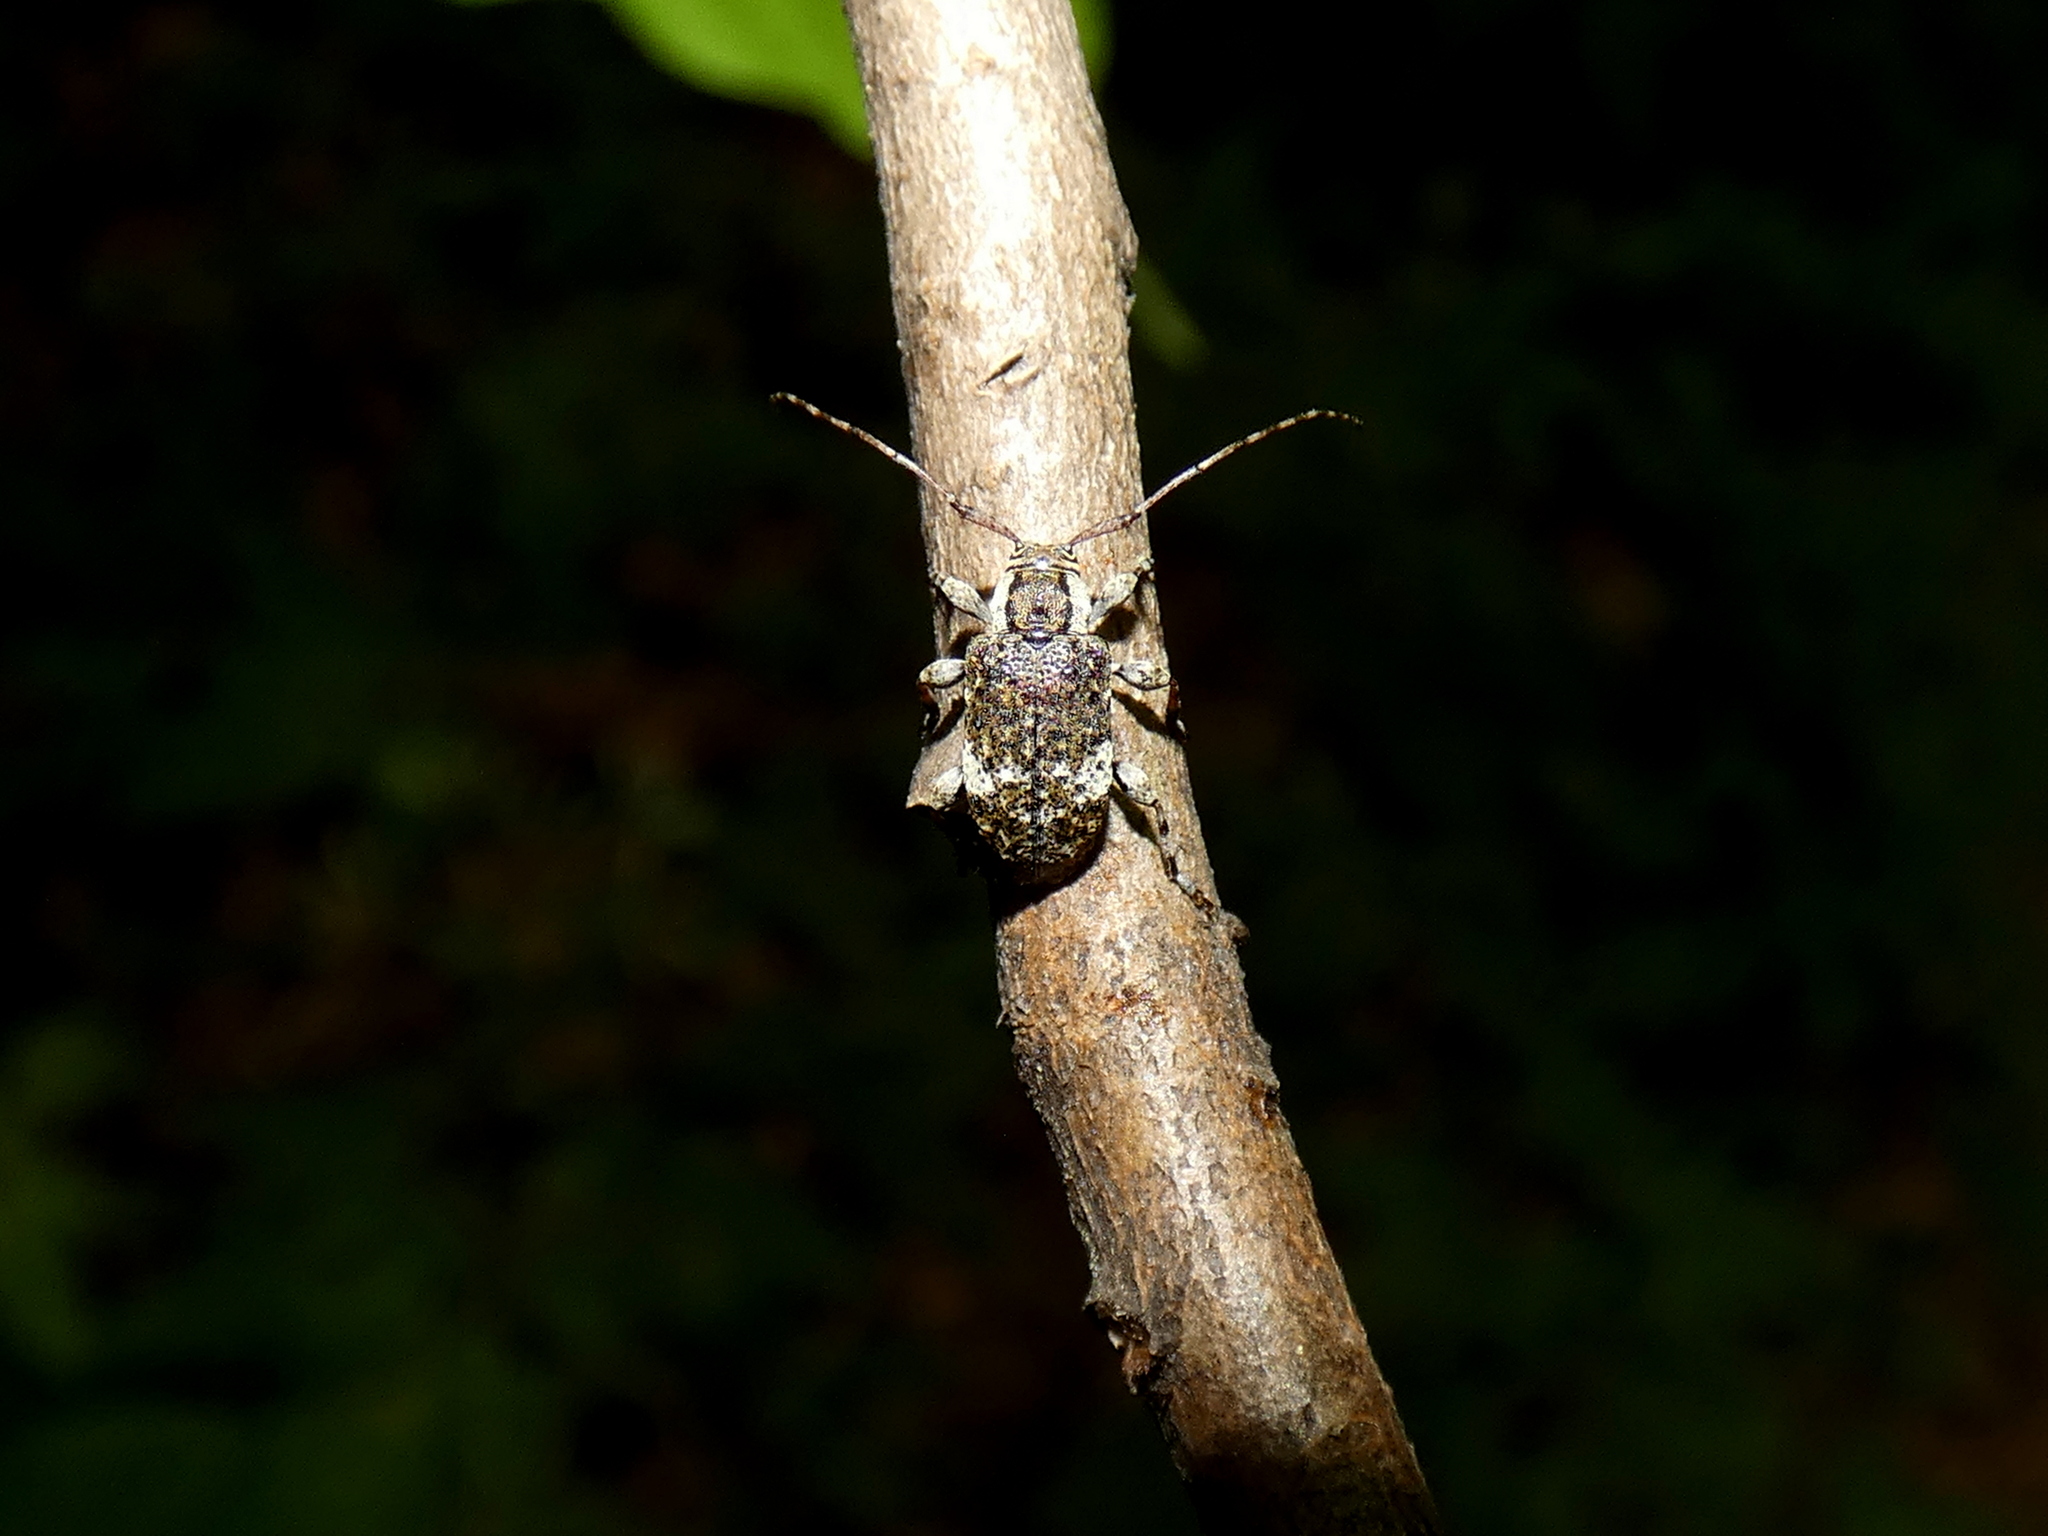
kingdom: Animalia
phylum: Arthropoda
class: Insecta
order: Coleoptera
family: Cerambycidae
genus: Astylopsis
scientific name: Astylopsis macula
